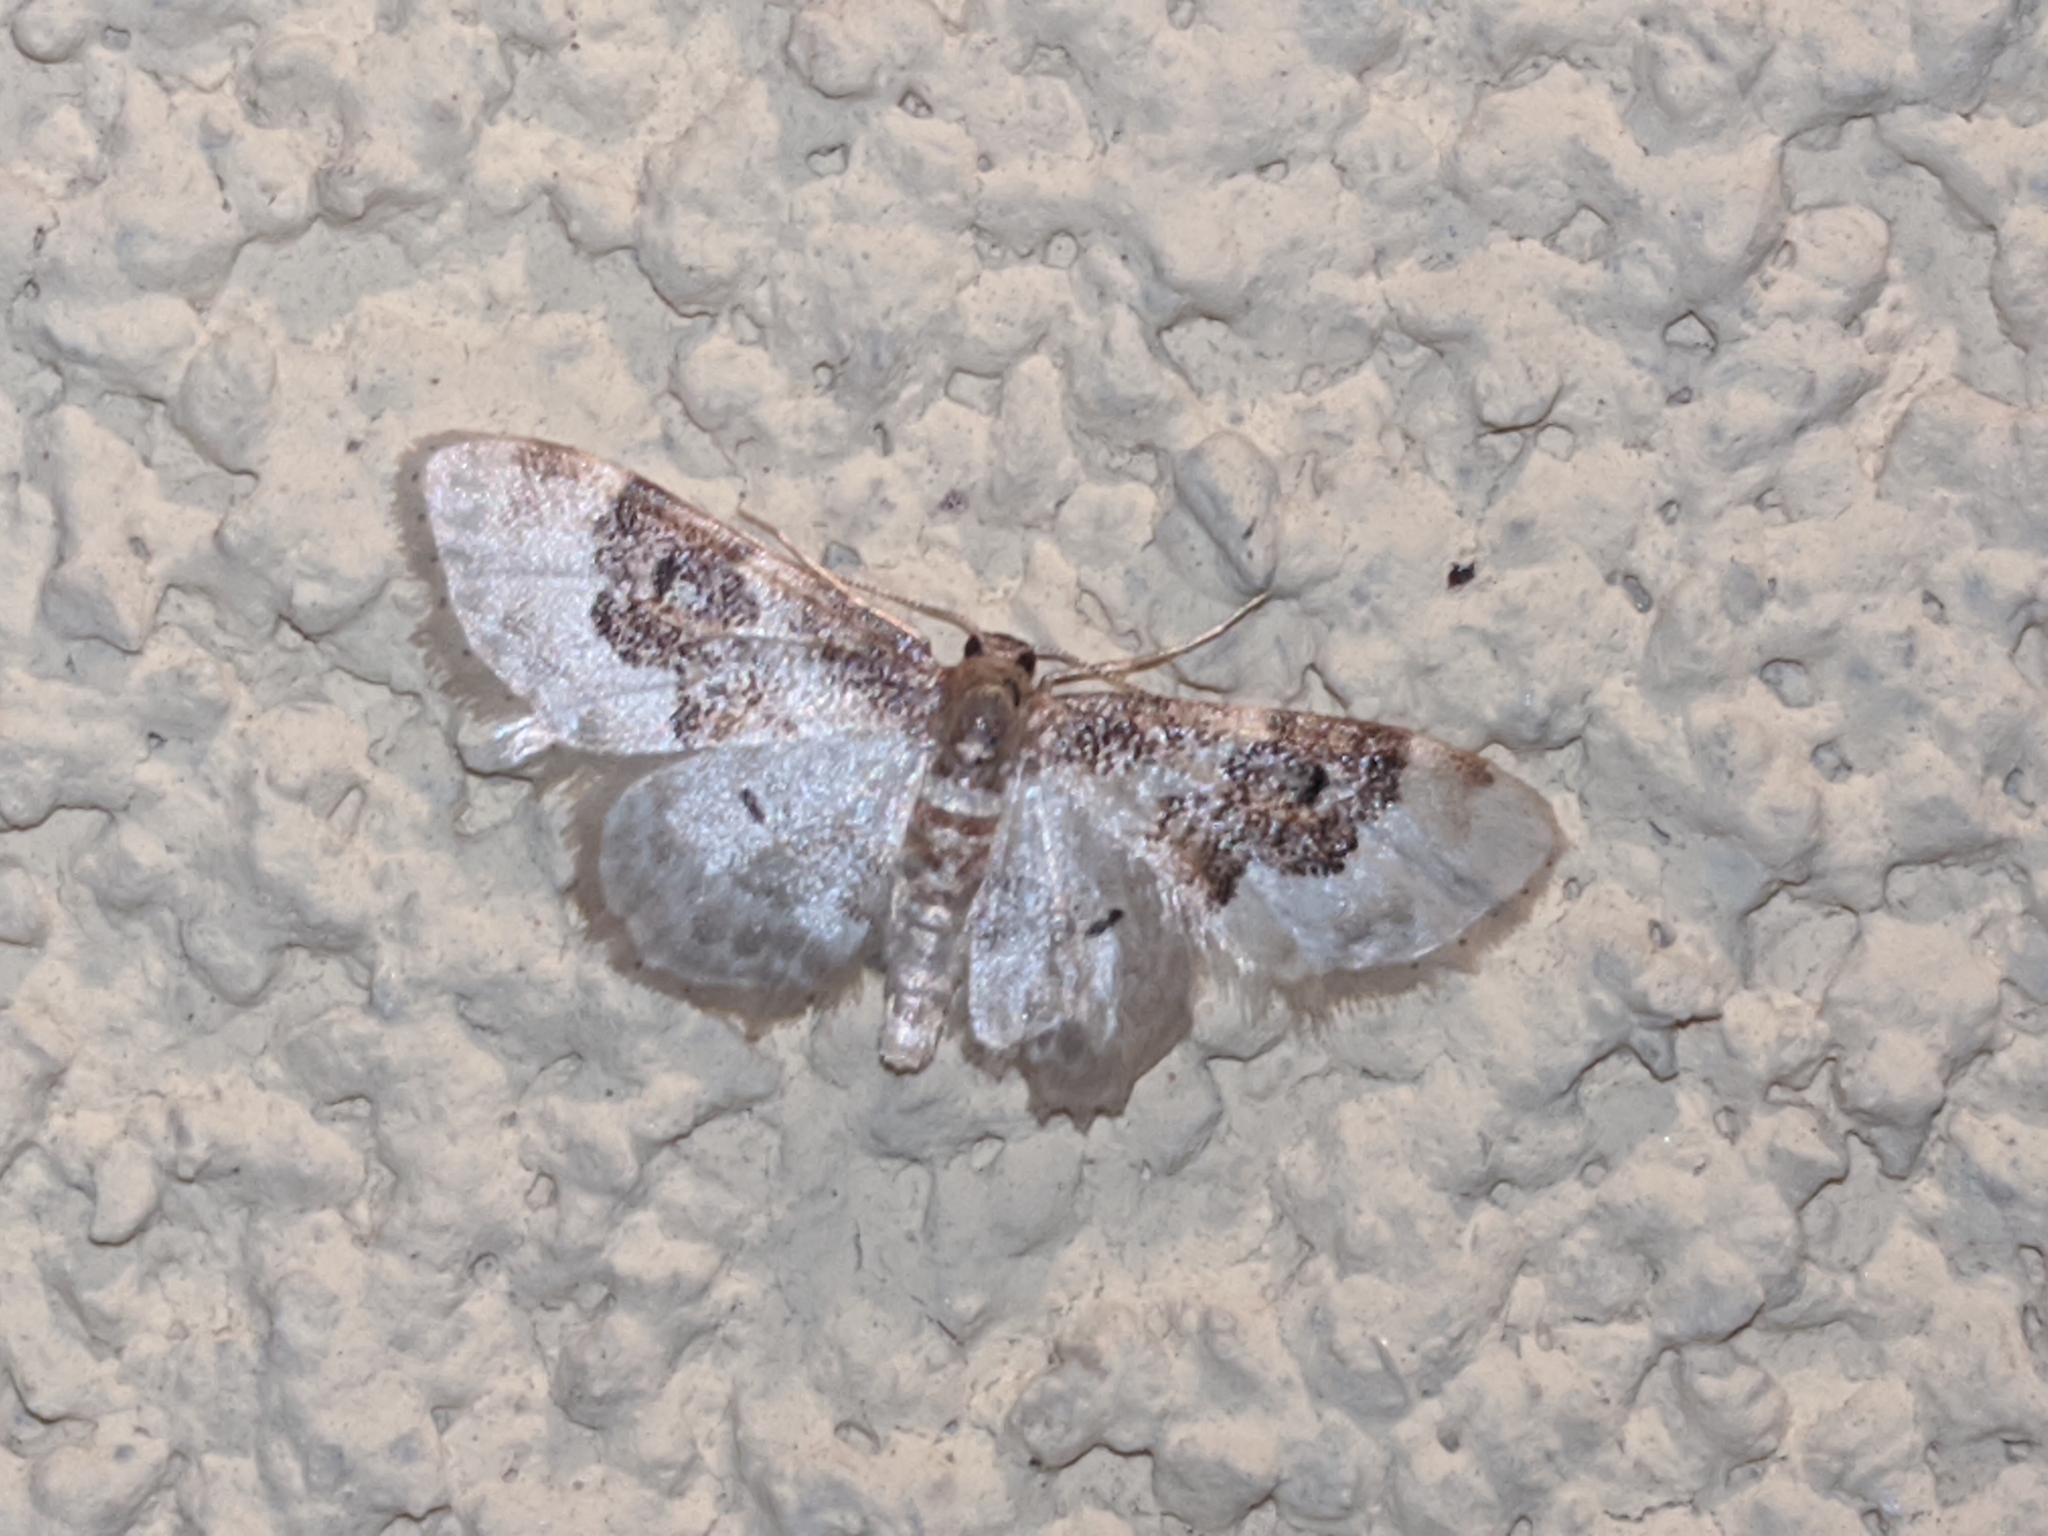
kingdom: Animalia
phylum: Arthropoda
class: Insecta
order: Lepidoptera
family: Geometridae
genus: Idaea
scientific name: Idaea rusticata
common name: Least carpet
